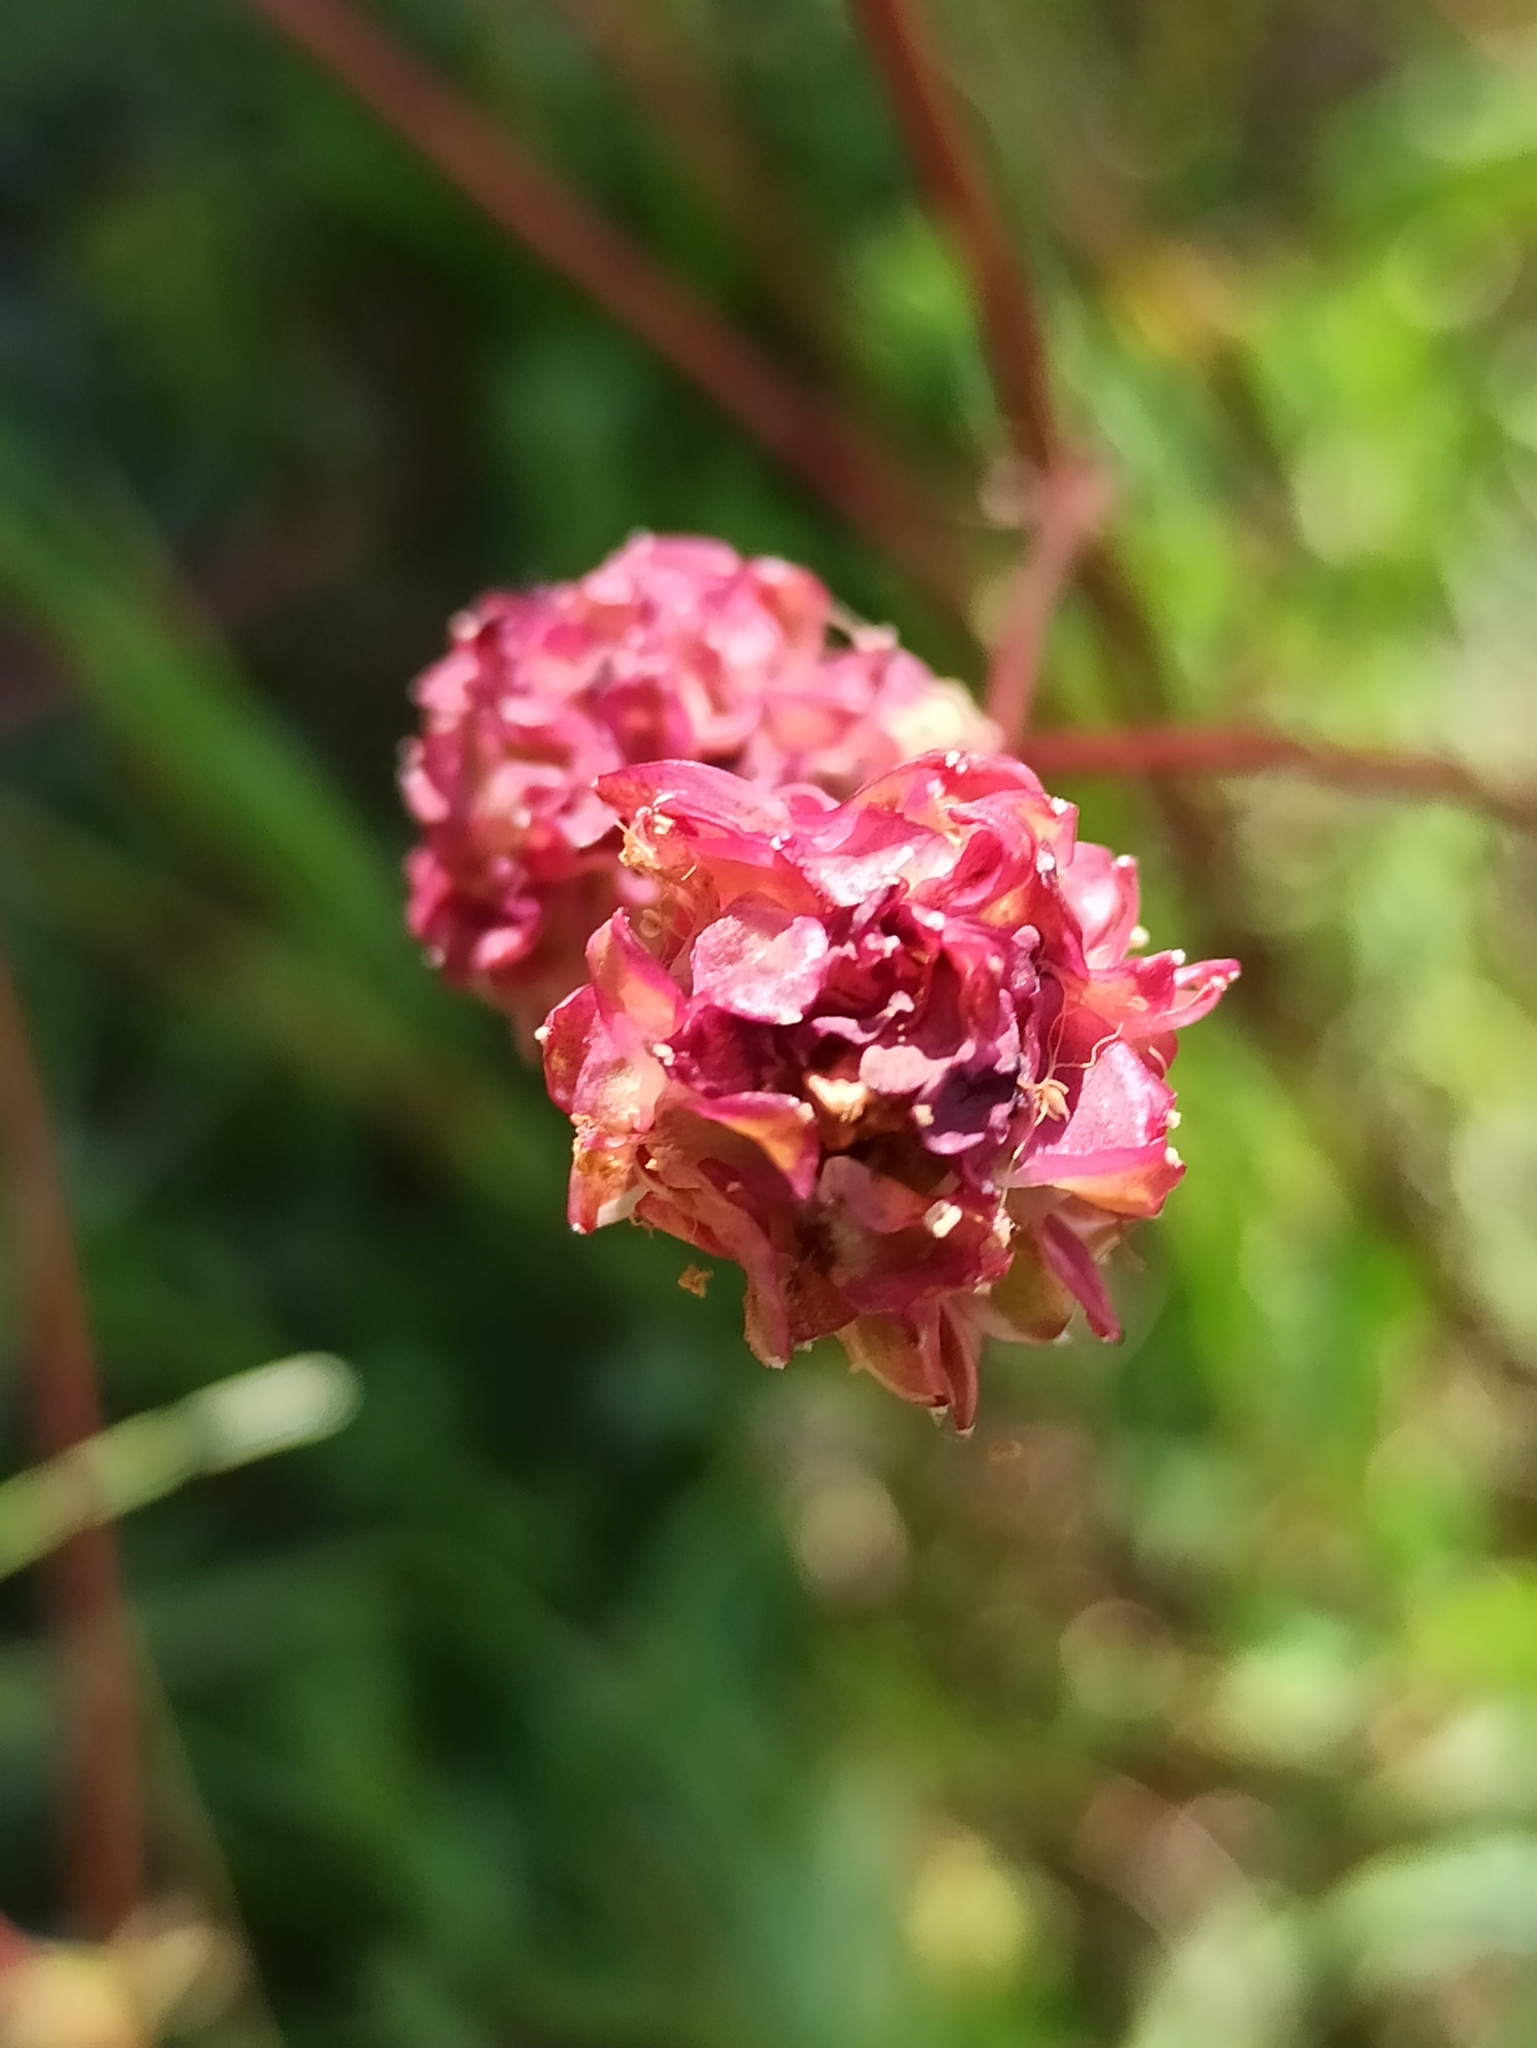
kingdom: Plantae
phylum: Tracheophyta
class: Magnoliopsida
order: Rosales
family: Rosaceae
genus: Poterium
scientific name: Poterium sanguisorba
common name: Salad burnet
